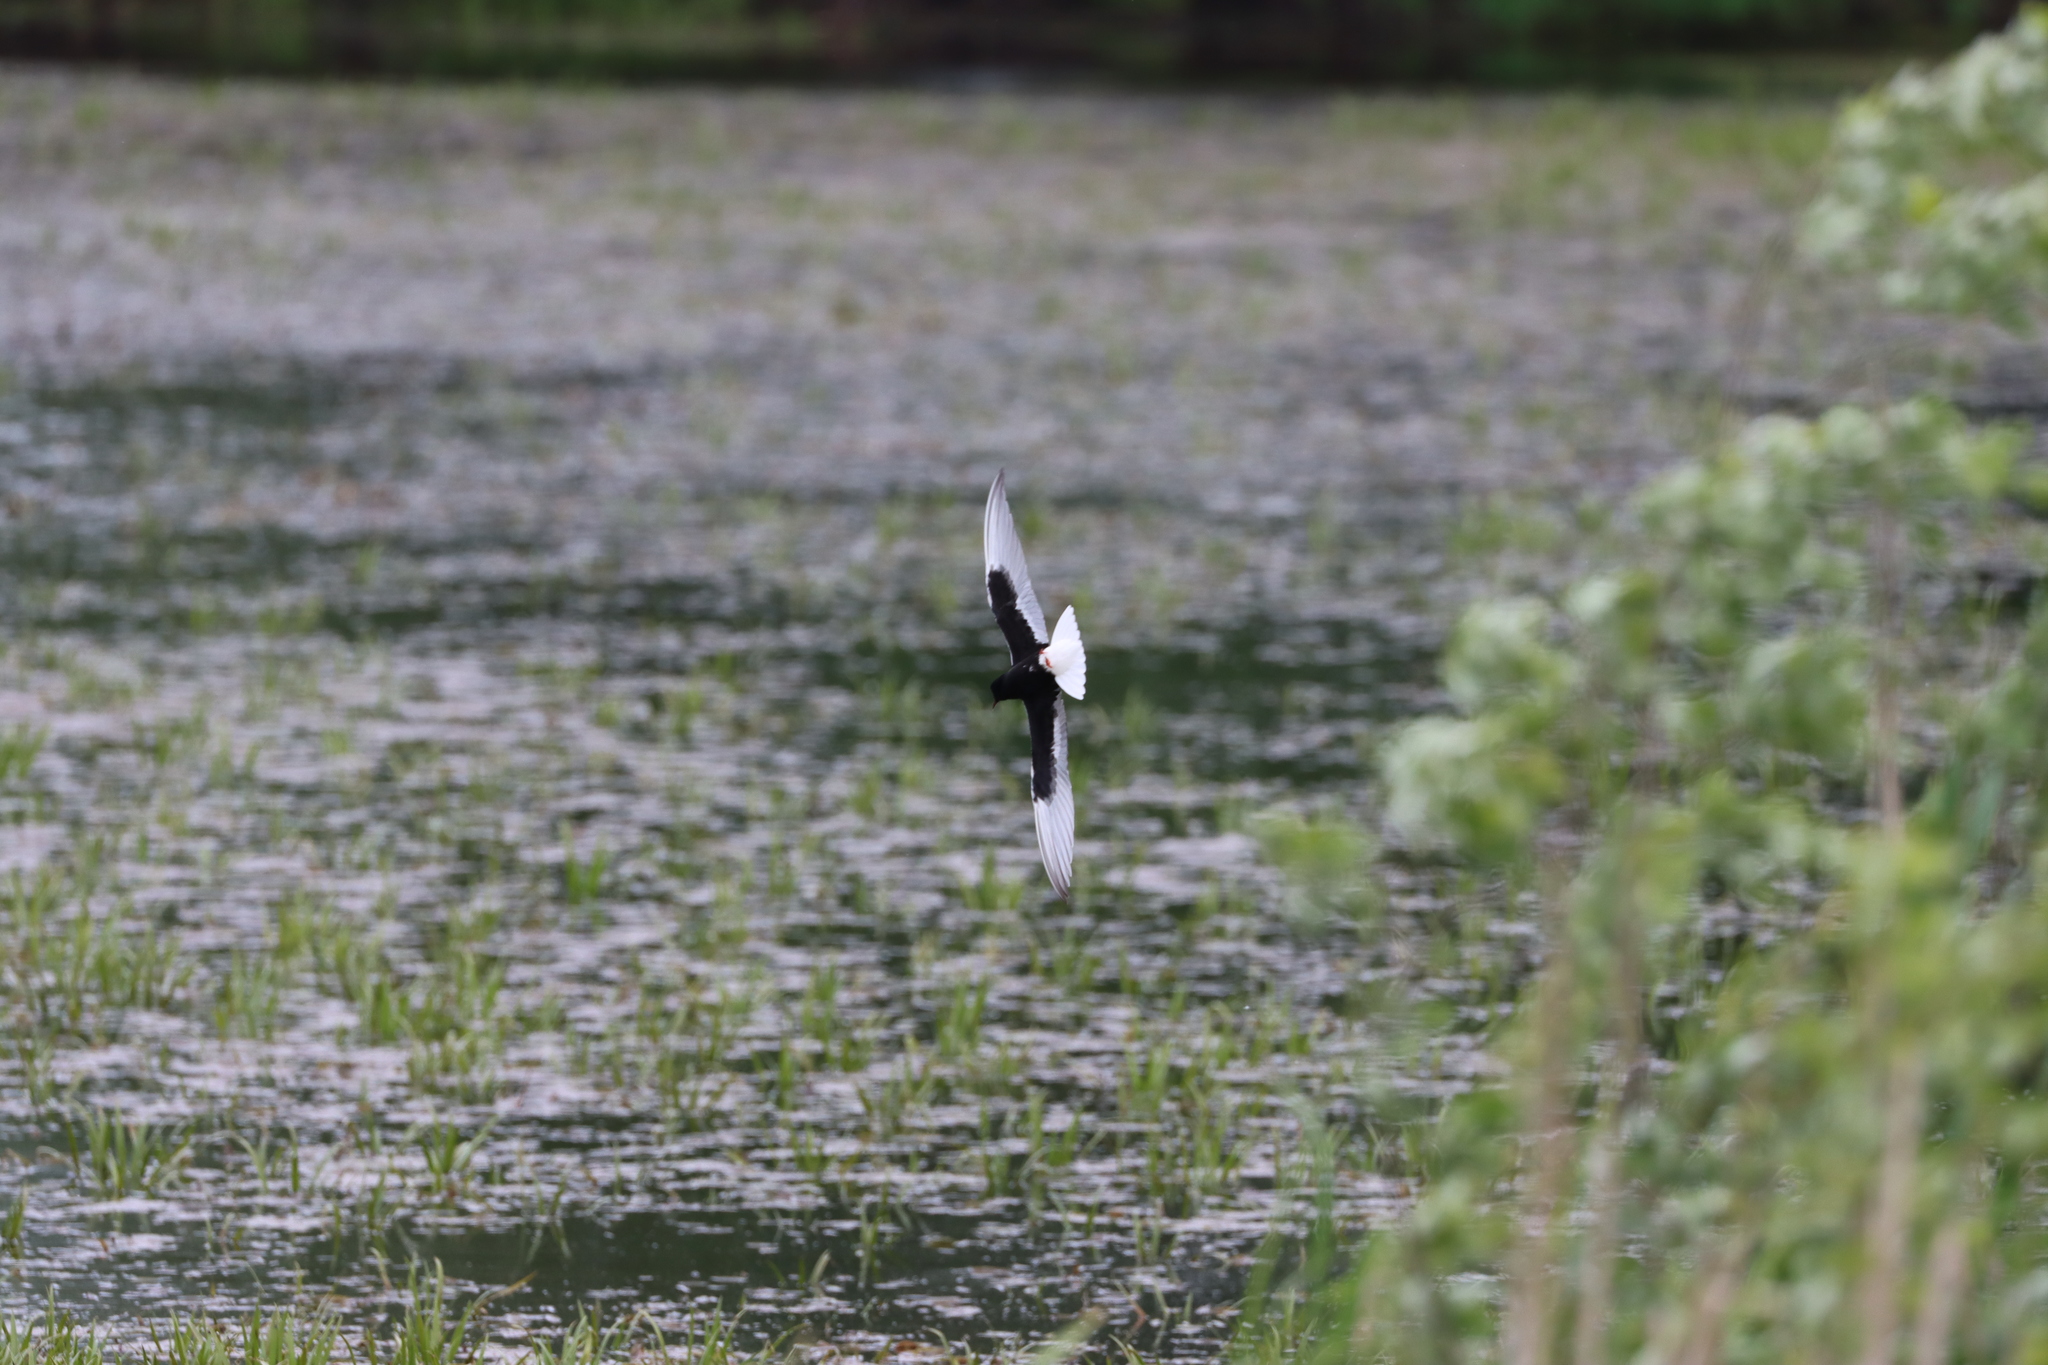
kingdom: Animalia
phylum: Chordata
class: Aves
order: Charadriiformes
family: Laridae
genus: Chlidonias
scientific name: Chlidonias leucopterus
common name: White-winged tern
